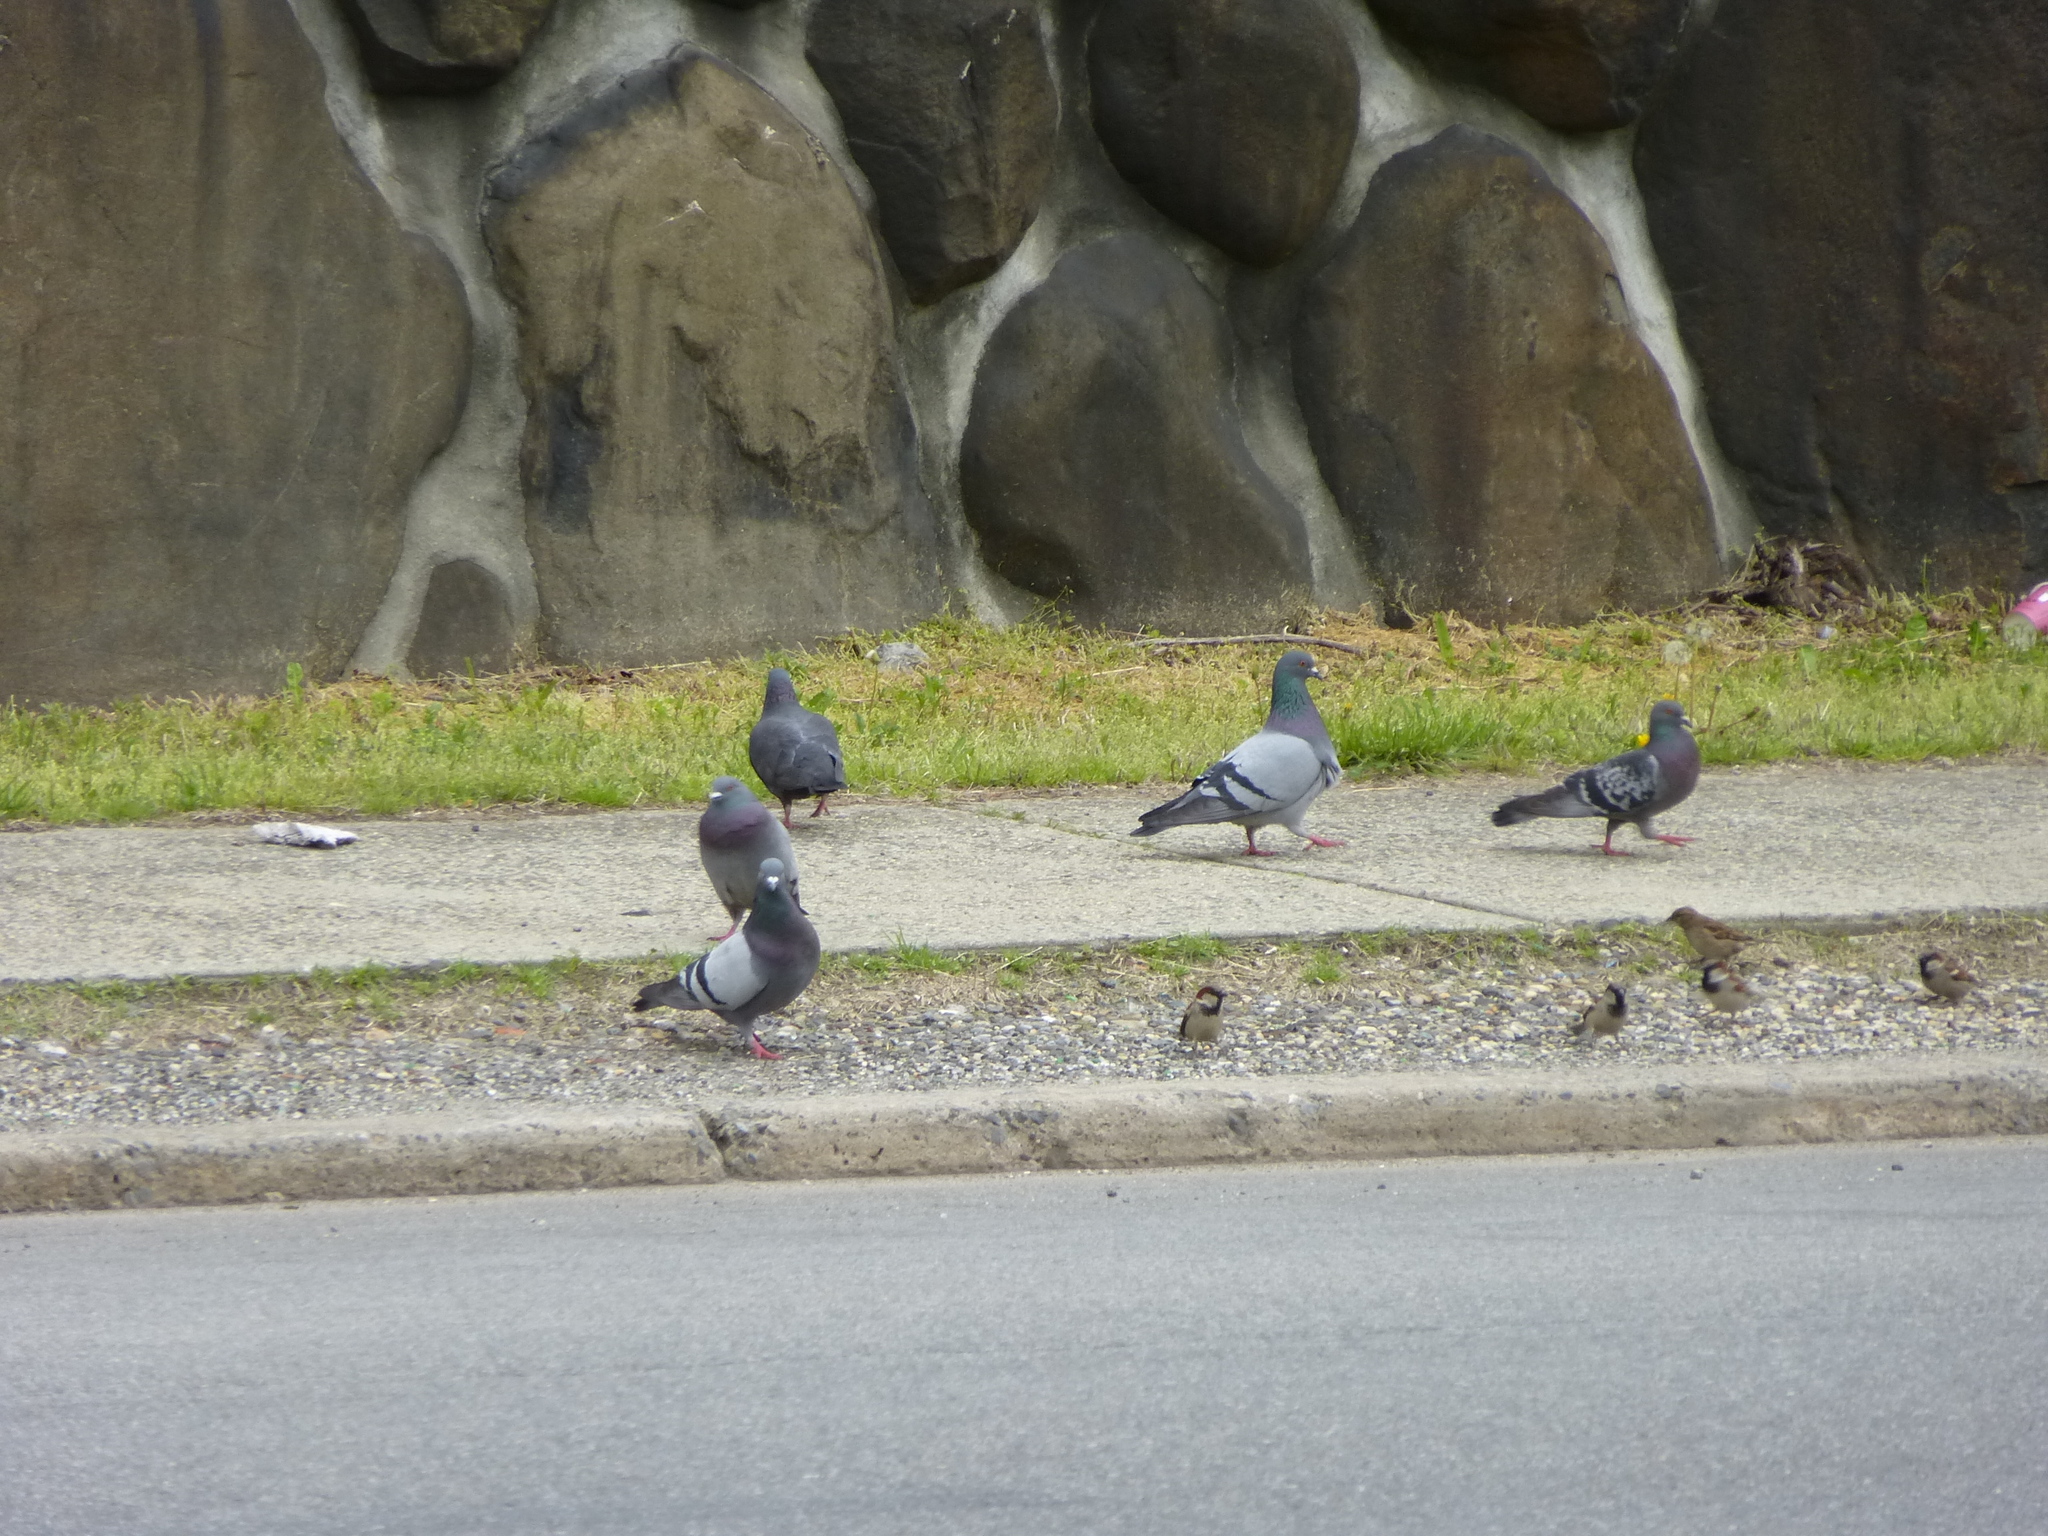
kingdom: Animalia
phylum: Chordata
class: Aves
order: Columbiformes
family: Columbidae
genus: Columba
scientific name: Columba livia
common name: Rock pigeon
